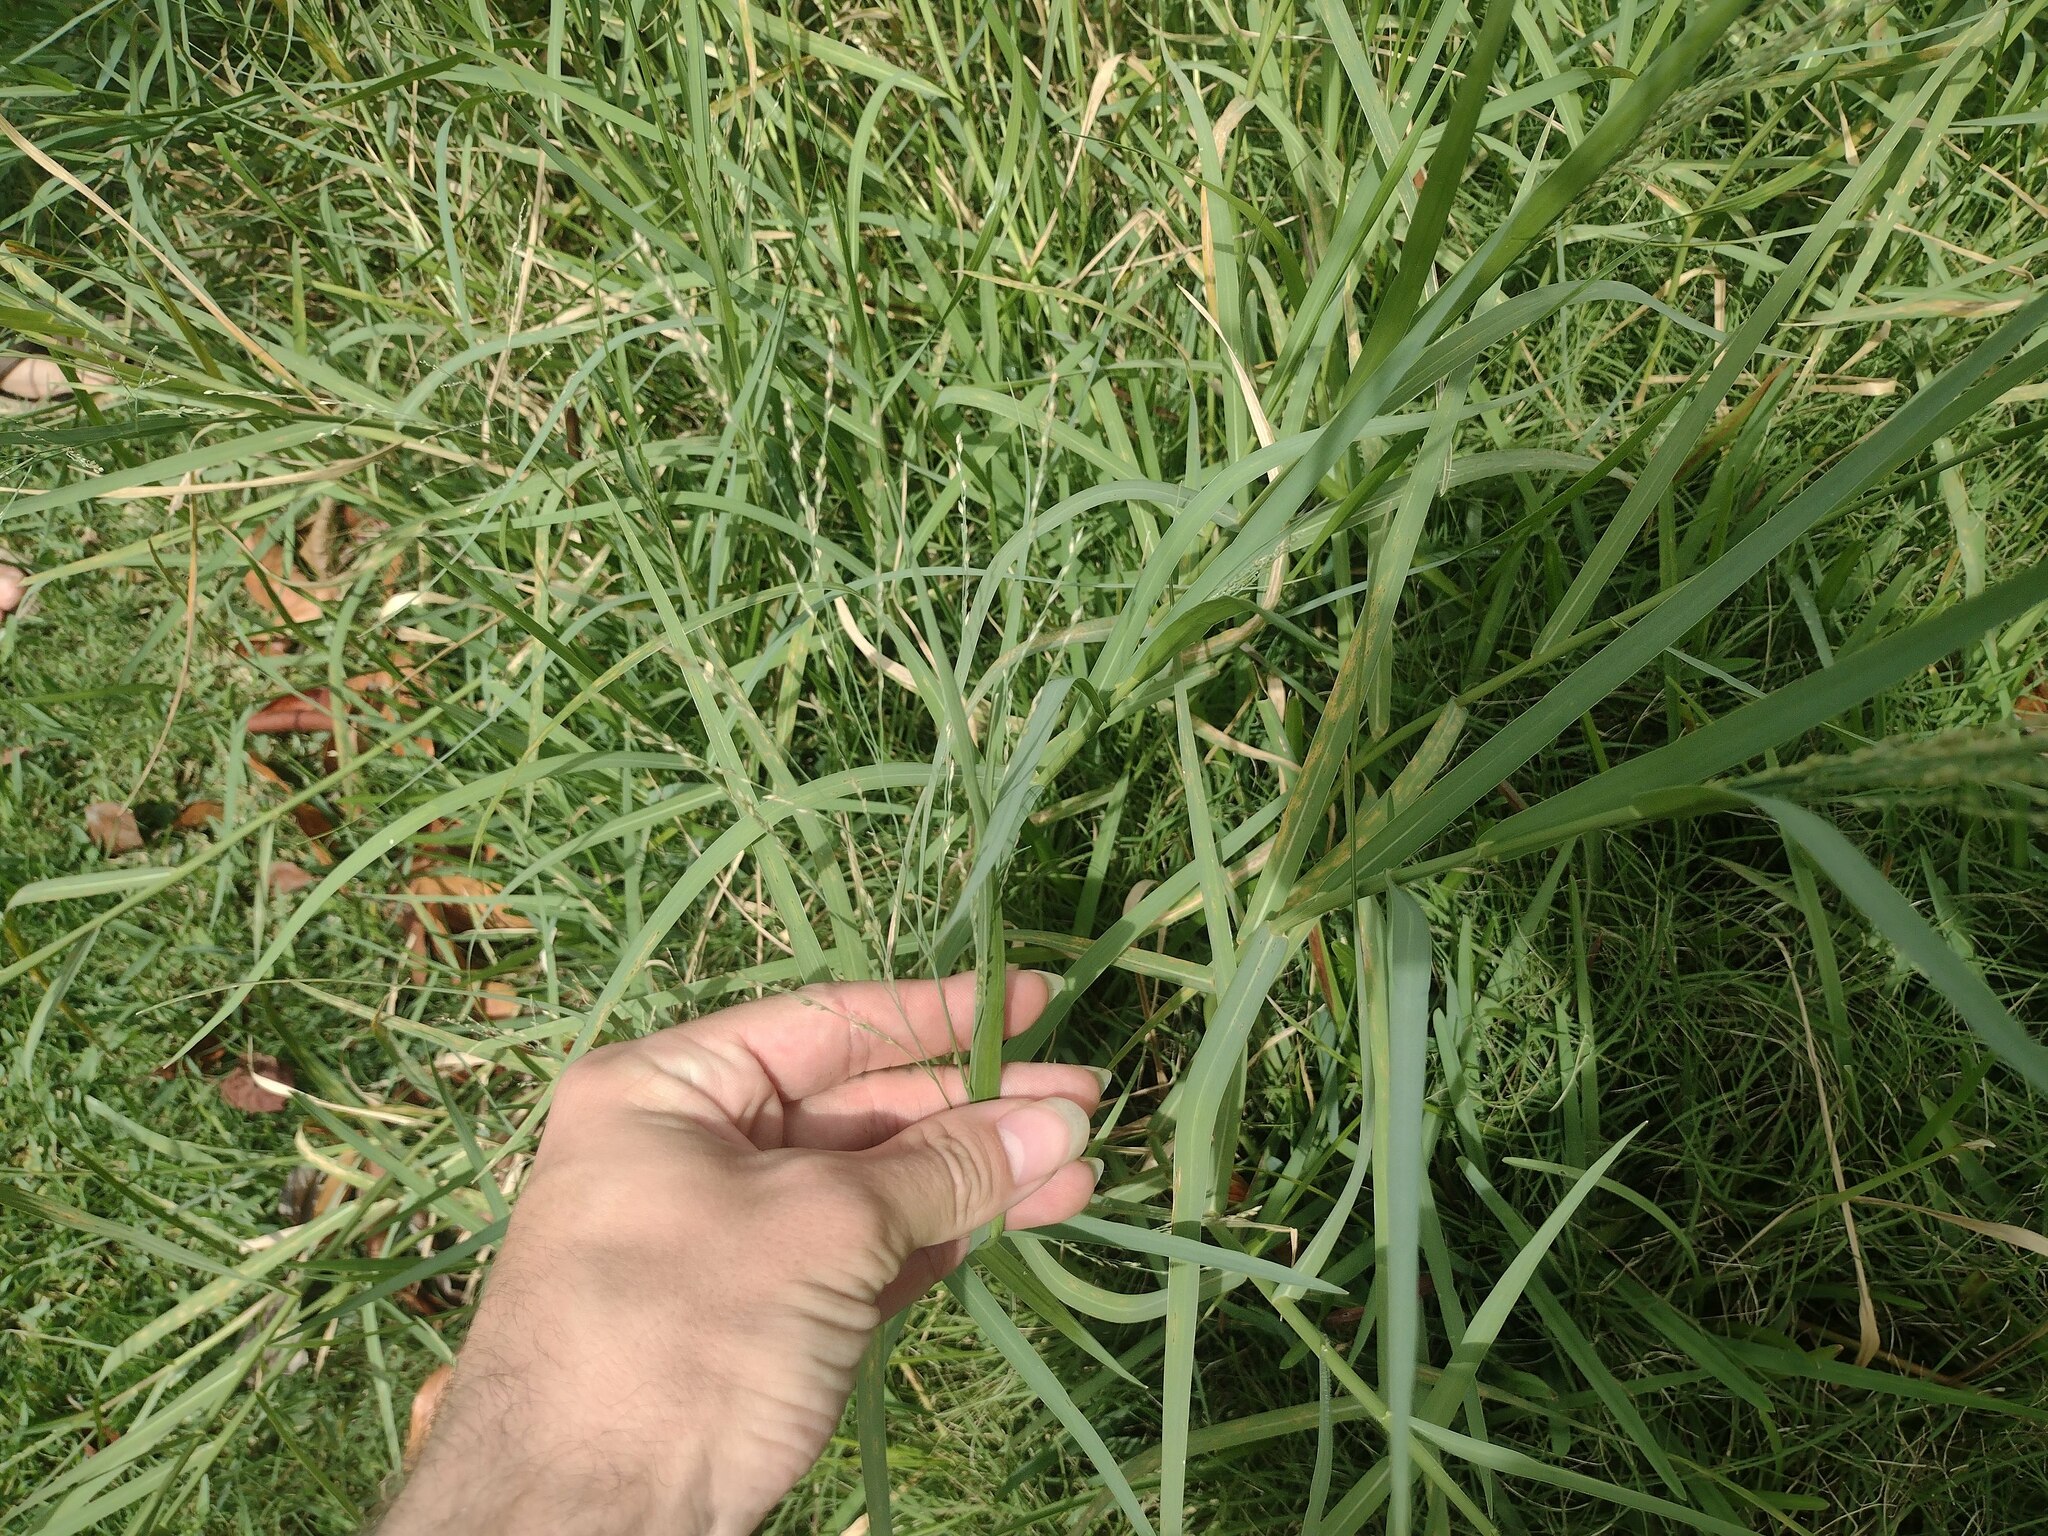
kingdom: Plantae
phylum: Tracheophyta
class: Liliopsida
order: Poales
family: Poaceae
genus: Panicum
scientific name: Panicum repens
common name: Torpedo grass
